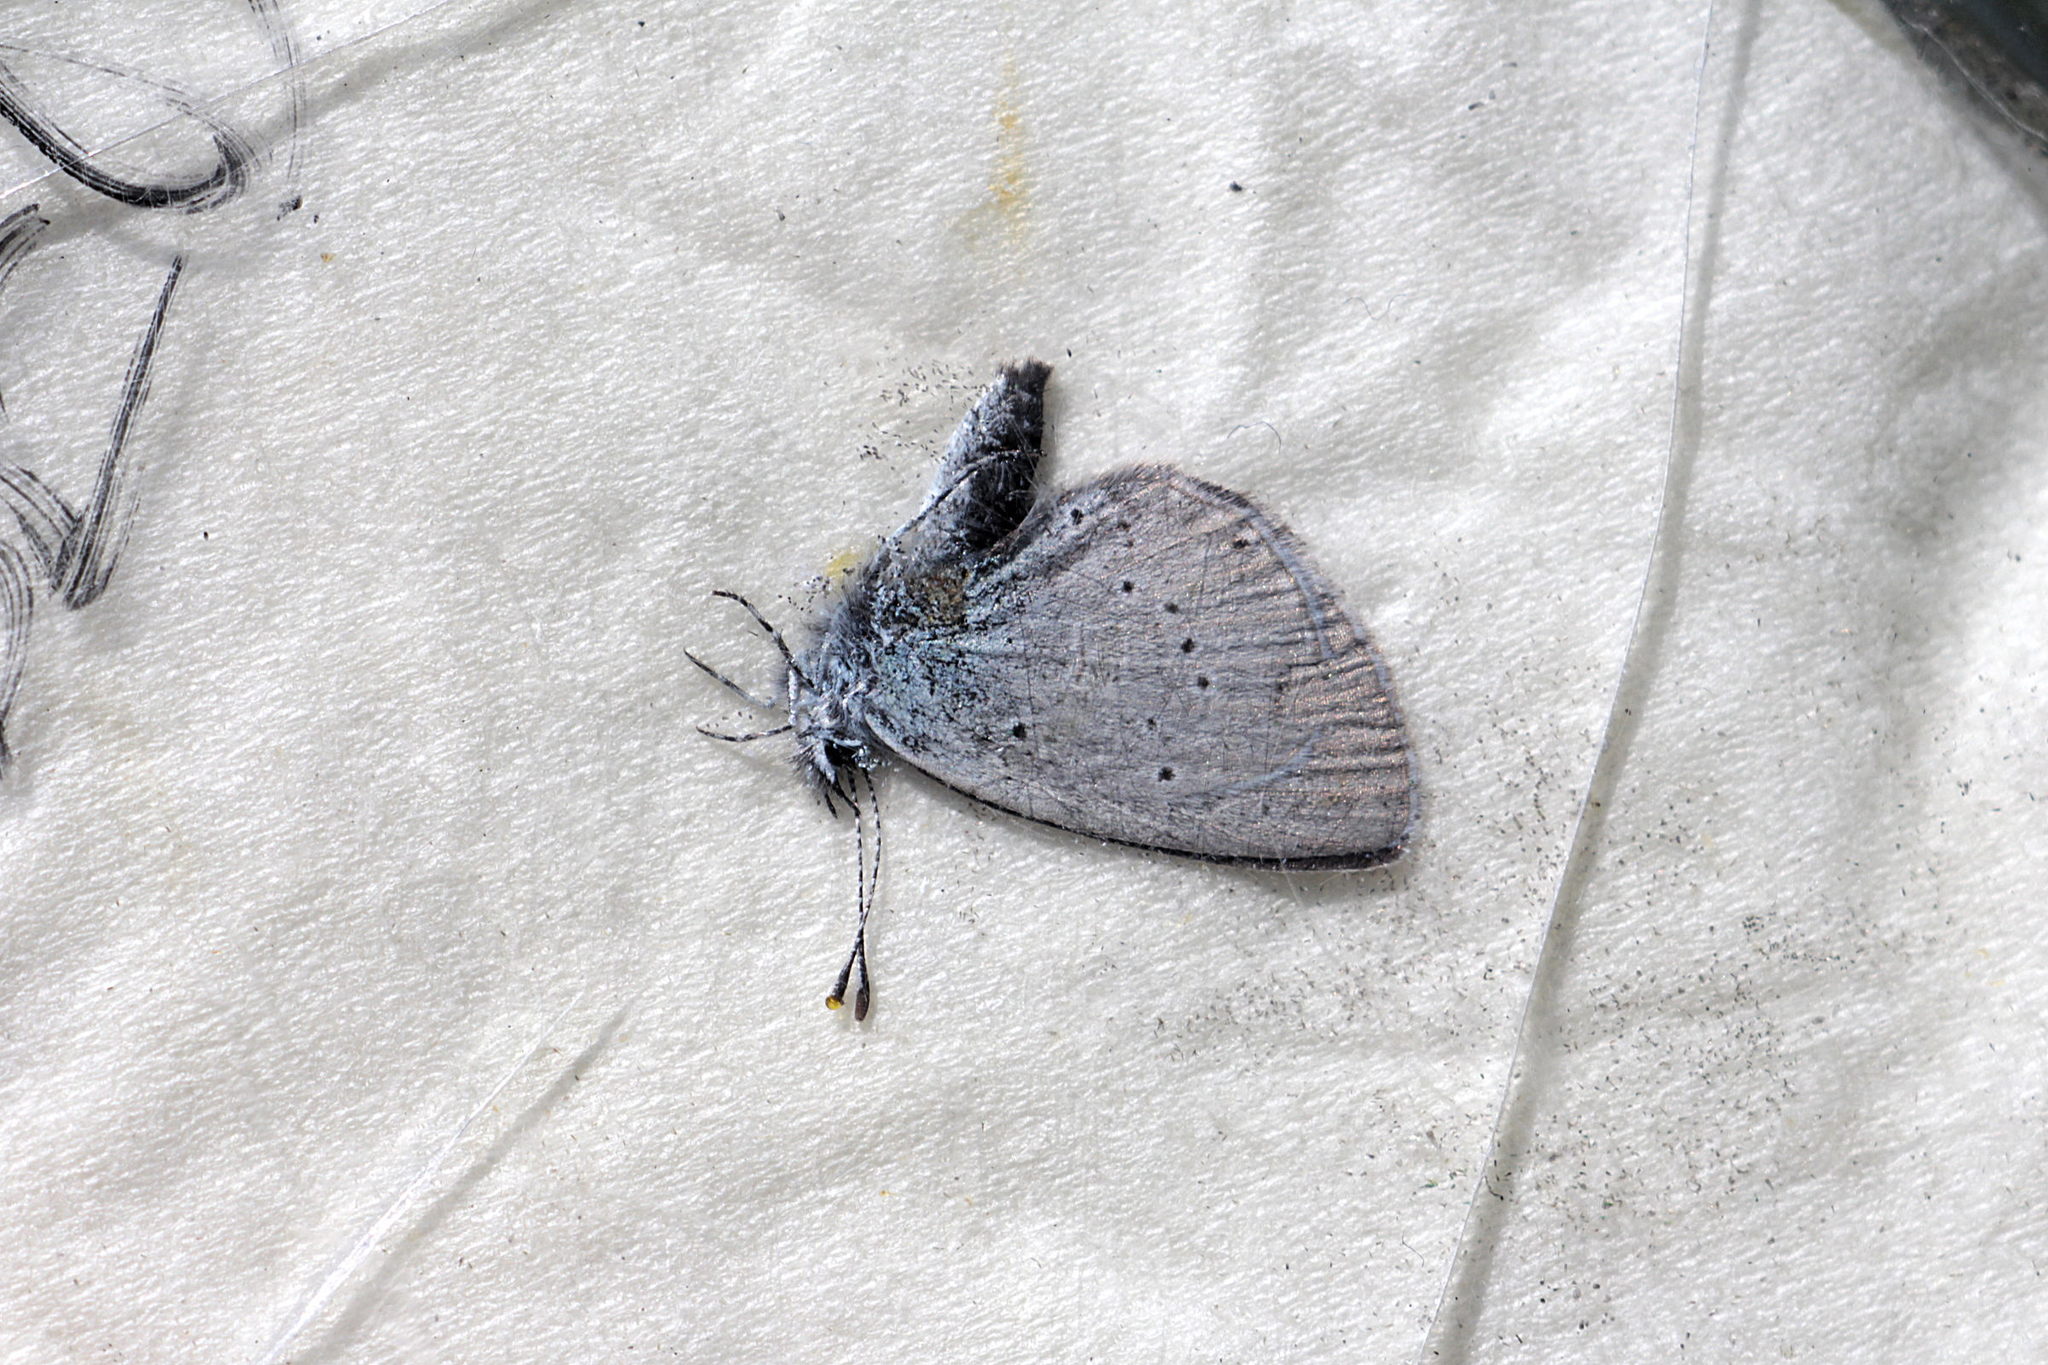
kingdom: Animalia
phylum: Arthropoda
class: Insecta
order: Lepidoptera
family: Lycaenidae
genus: Cupido
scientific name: Cupido minimus
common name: Small blue
